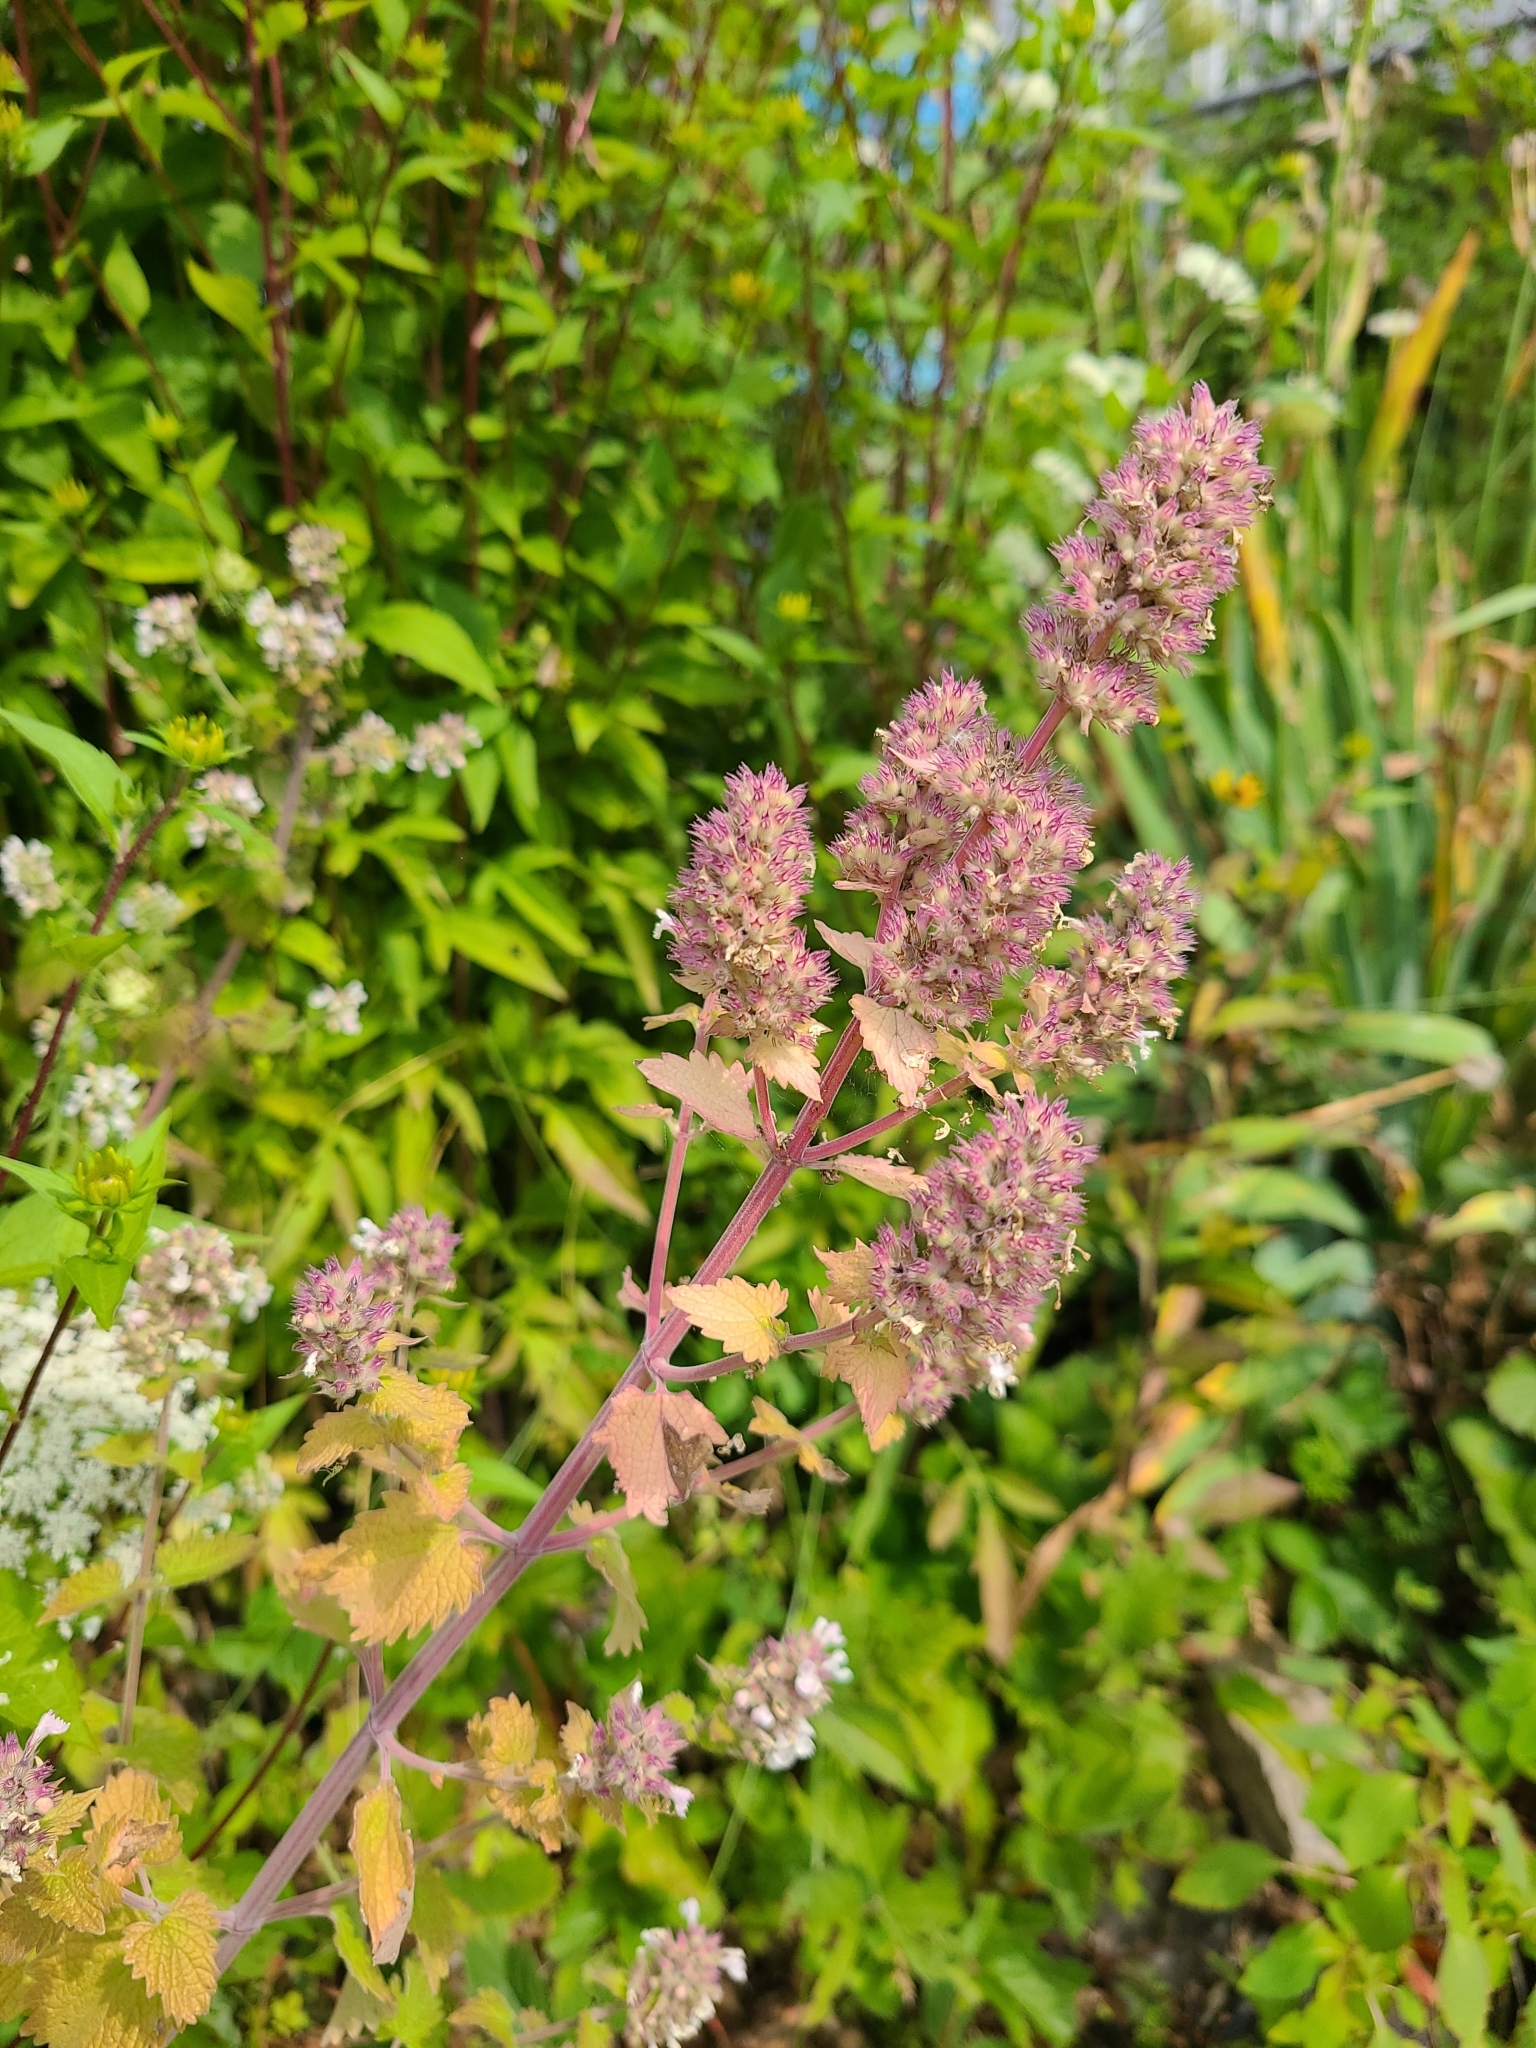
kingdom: Plantae
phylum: Tracheophyta
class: Magnoliopsida
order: Lamiales
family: Lamiaceae
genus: Nepeta
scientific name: Nepeta cataria
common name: Catnip
